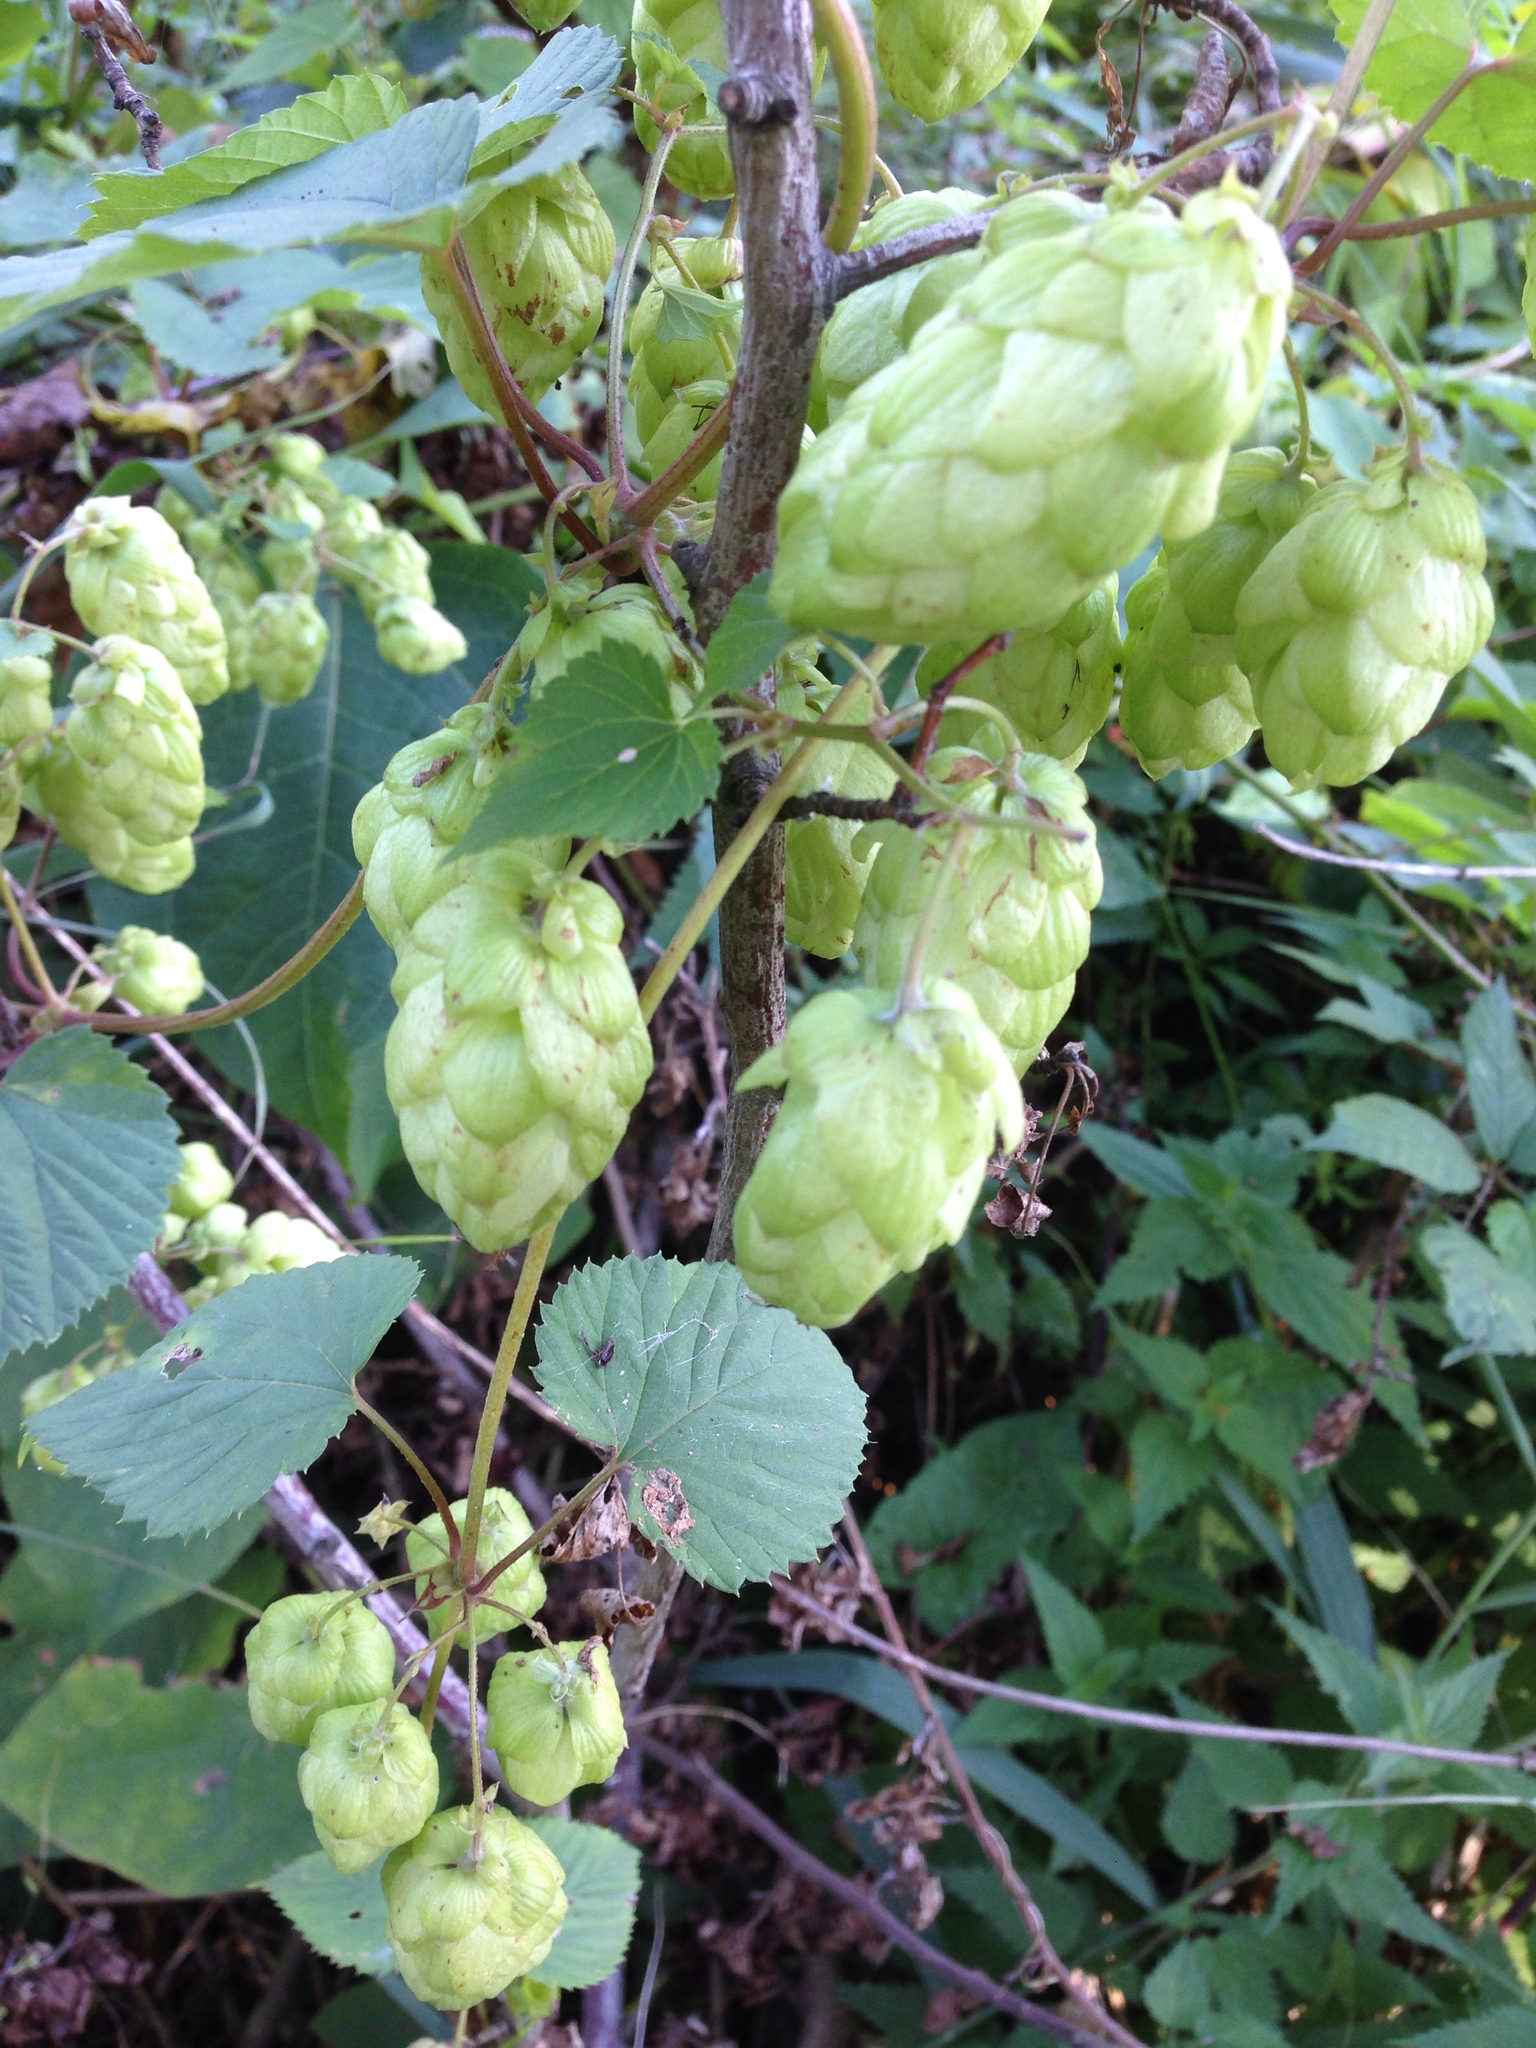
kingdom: Plantae
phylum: Tracheophyta
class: Magnoliopsida
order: Rosales
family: Cannabaceae
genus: Humulus
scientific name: Humulus lupulus
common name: Hop
